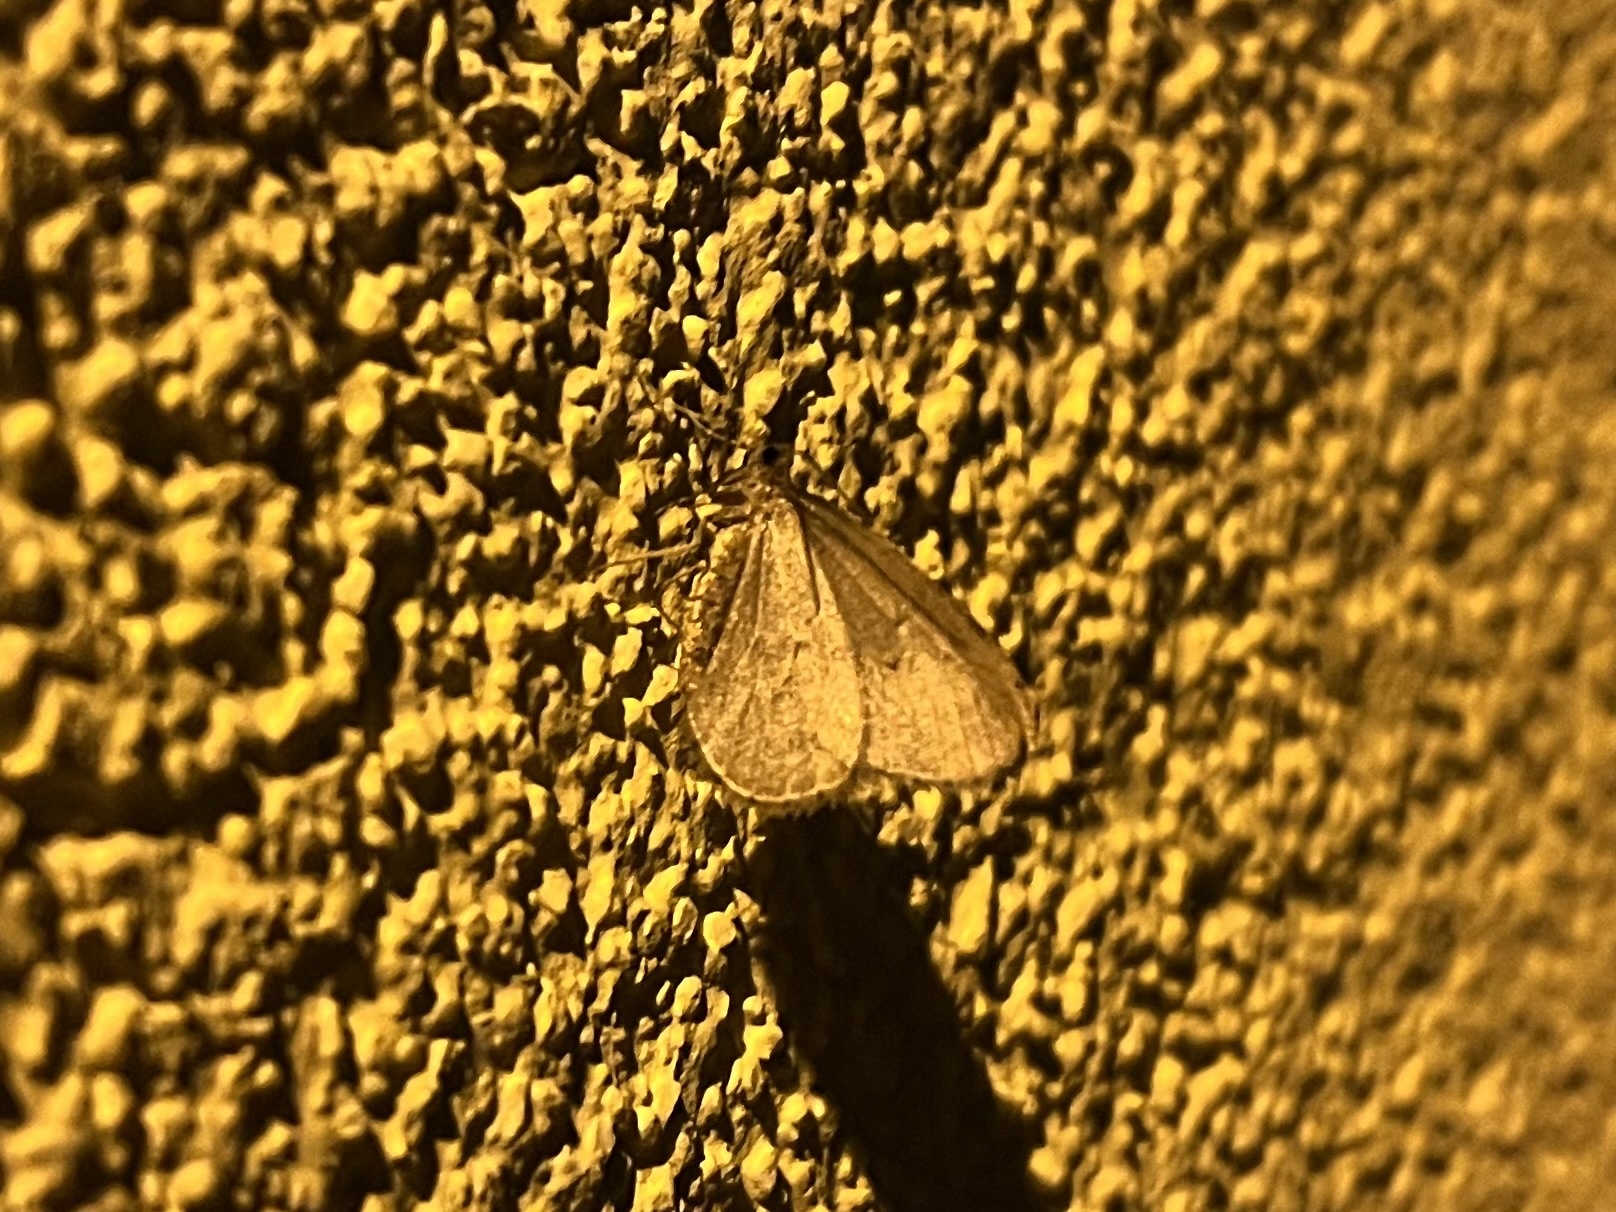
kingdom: Animalia
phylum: Arthropoda
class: Insecta
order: Lepidoptera
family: Geometridae
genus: Operophtera
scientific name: Operophtera brumata
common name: Winter moth
